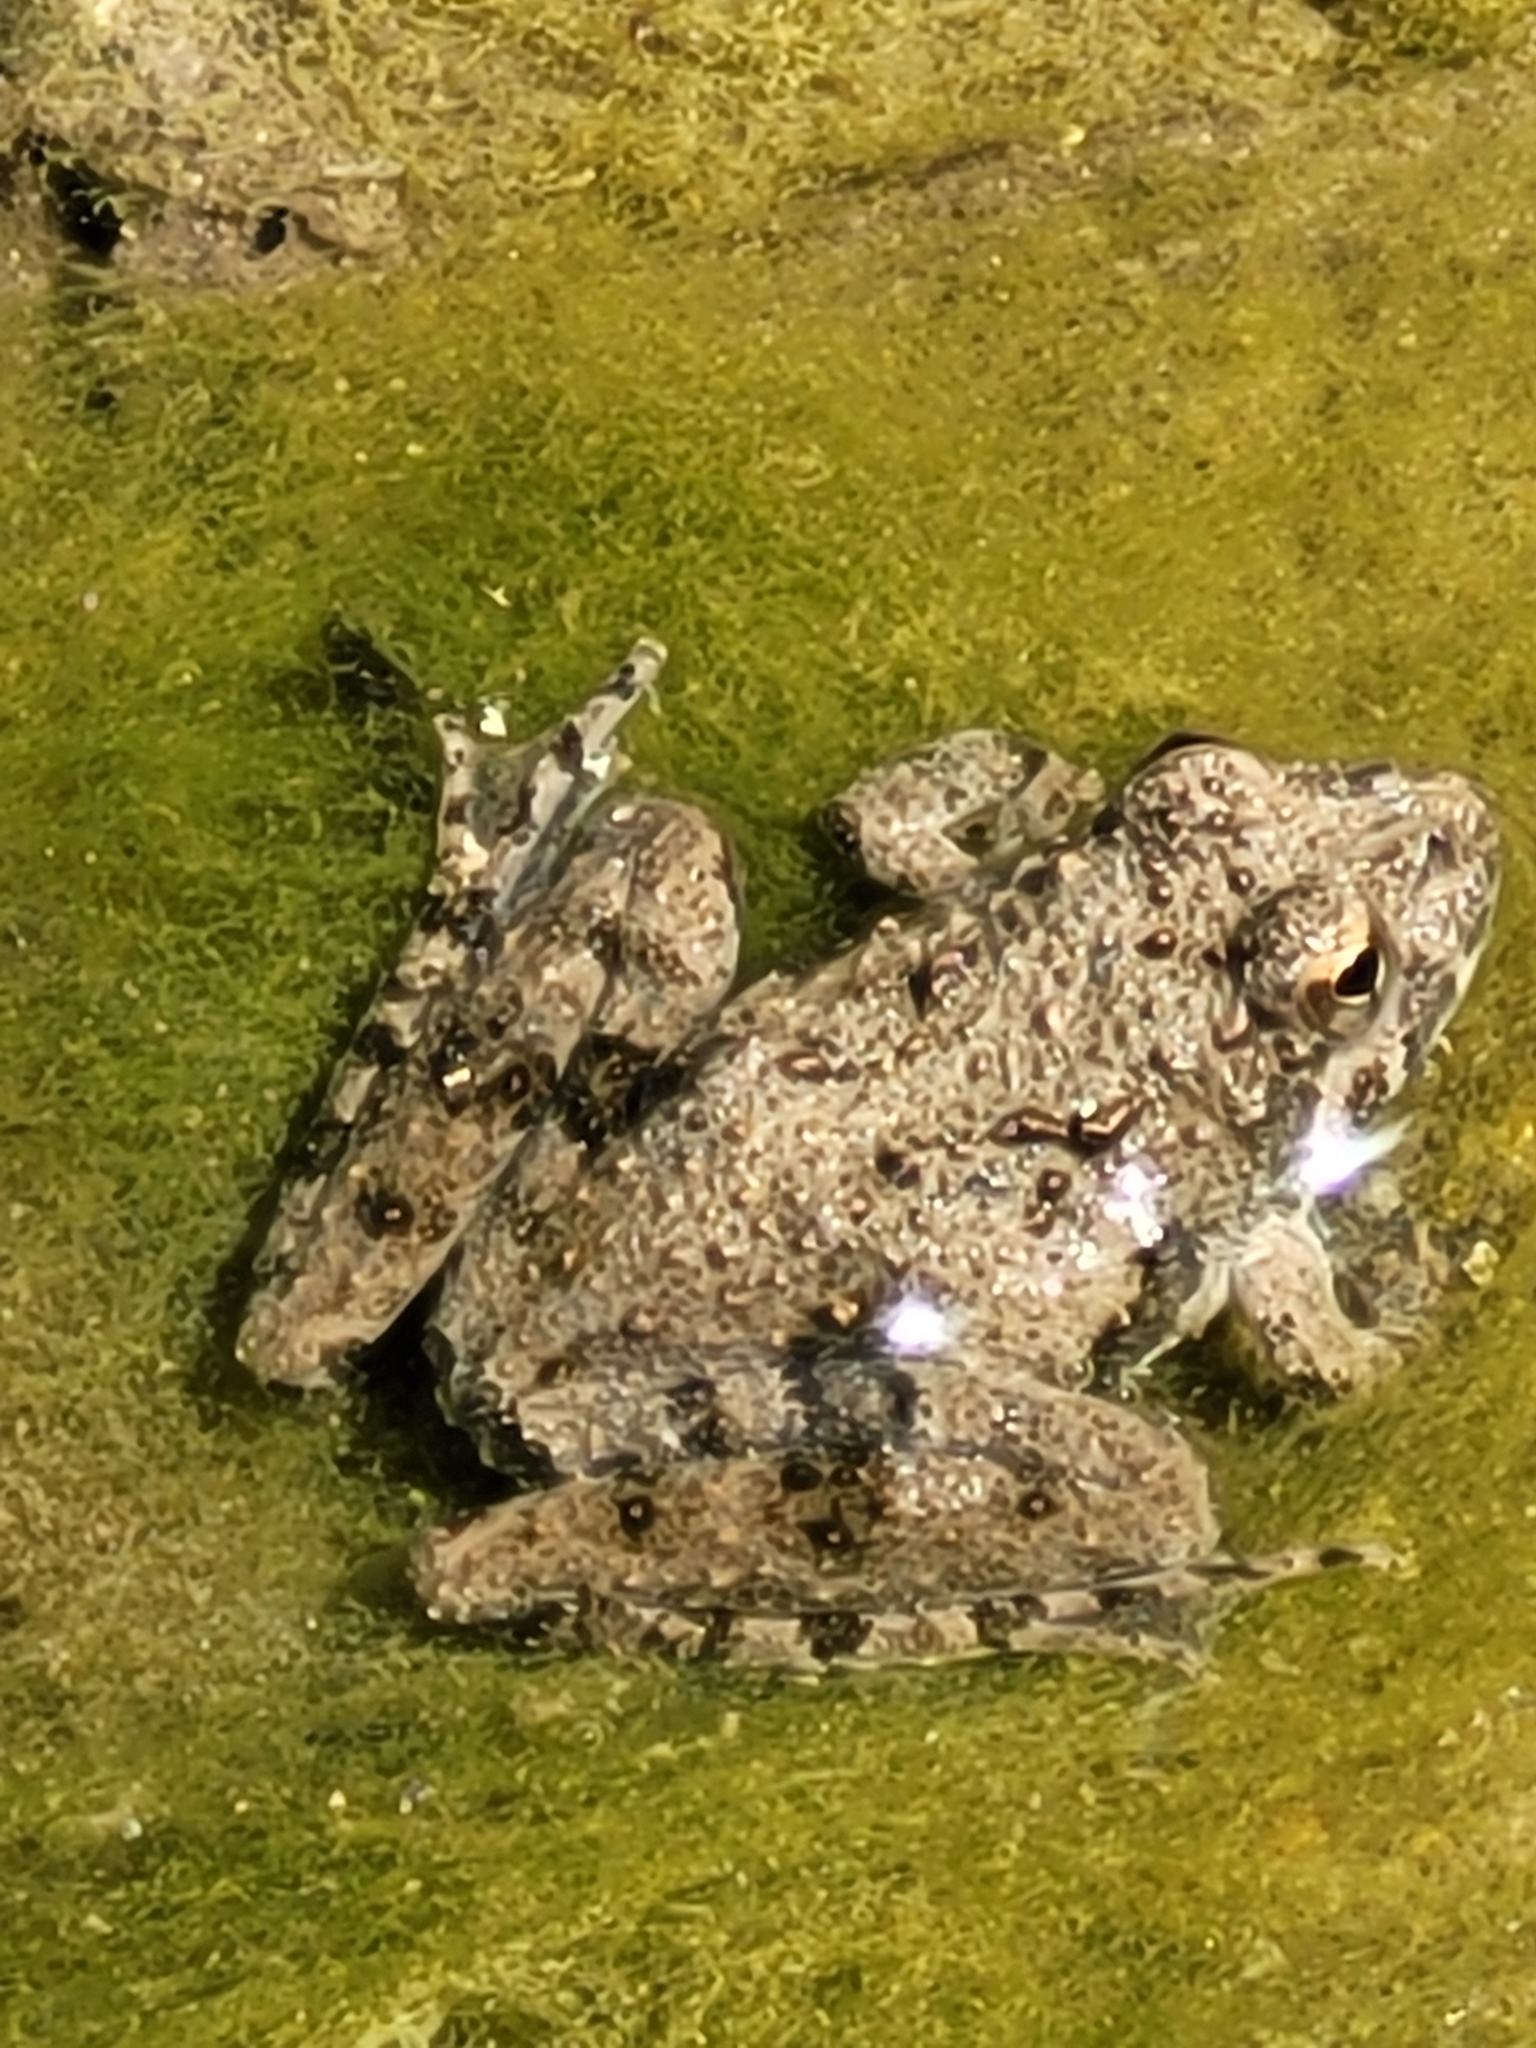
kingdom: Animalia
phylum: Chordata
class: Amphibia
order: Anura
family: Hylidae
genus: Acris
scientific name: Acris blanchardi
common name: Blanchard's cricket frog
